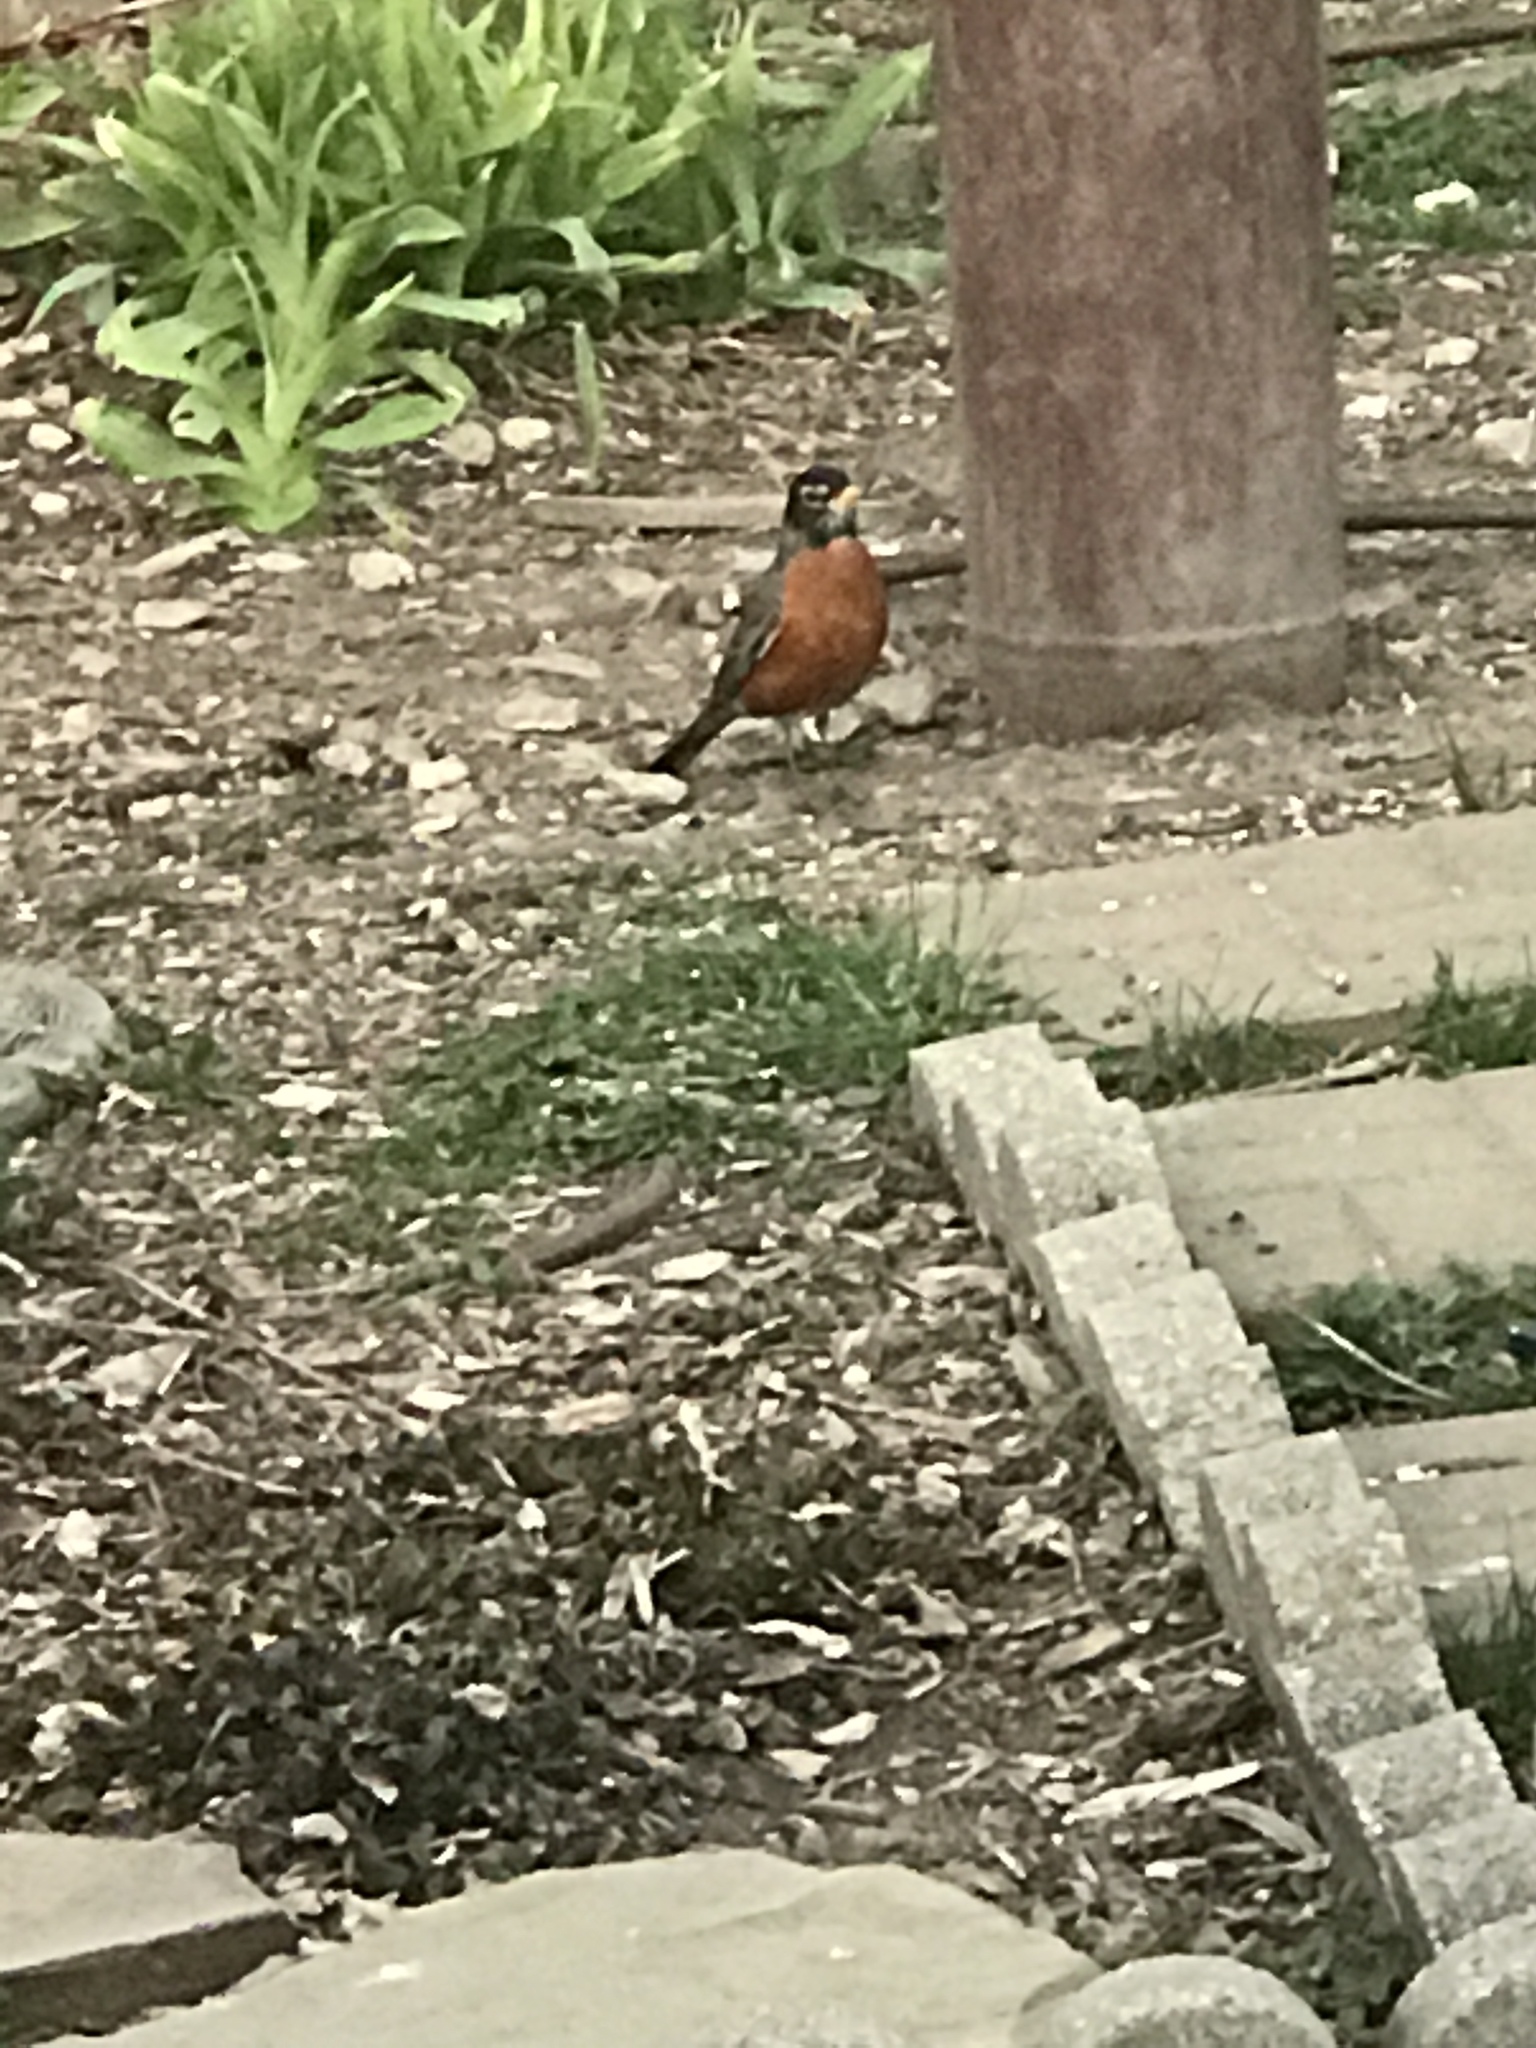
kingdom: Animalia
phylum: Chordata
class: Aves
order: Passeriformes
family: Turdidae
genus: Turdus
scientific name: Turdus migratorius
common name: American robin
